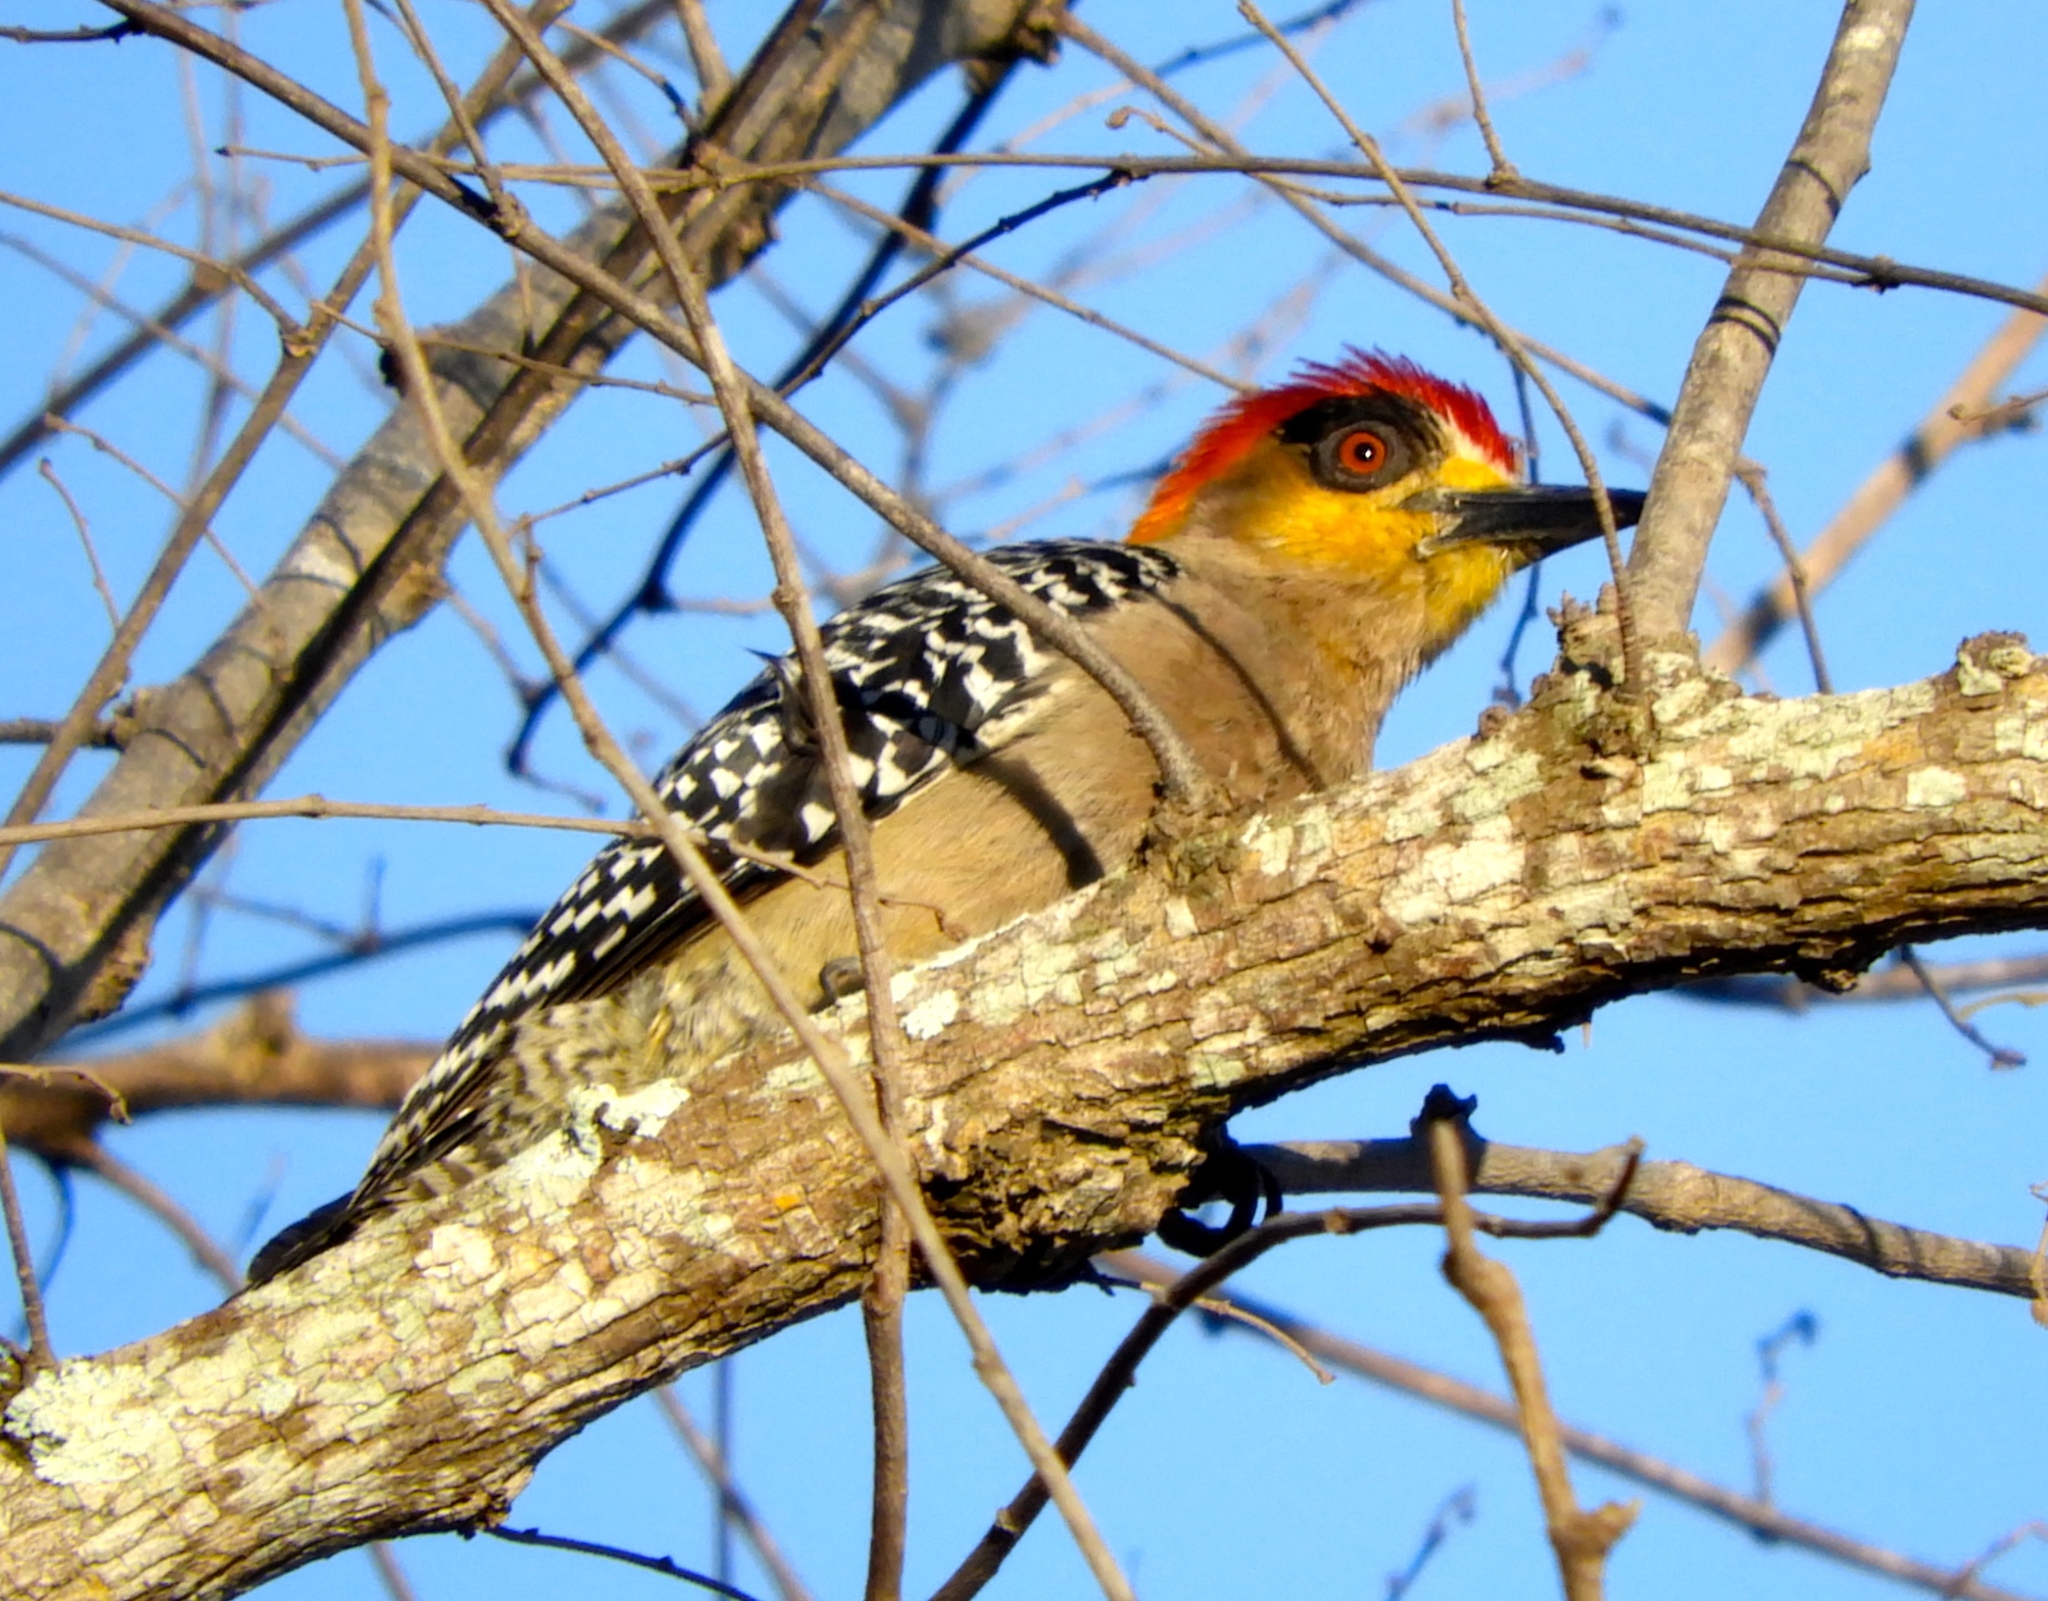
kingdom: Animalia
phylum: Chordata
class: Aves
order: Piciformes
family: Picidae
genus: Melanerpes
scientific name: Melanerpes chrysogenys
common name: Golden-cheeked woodpecker
